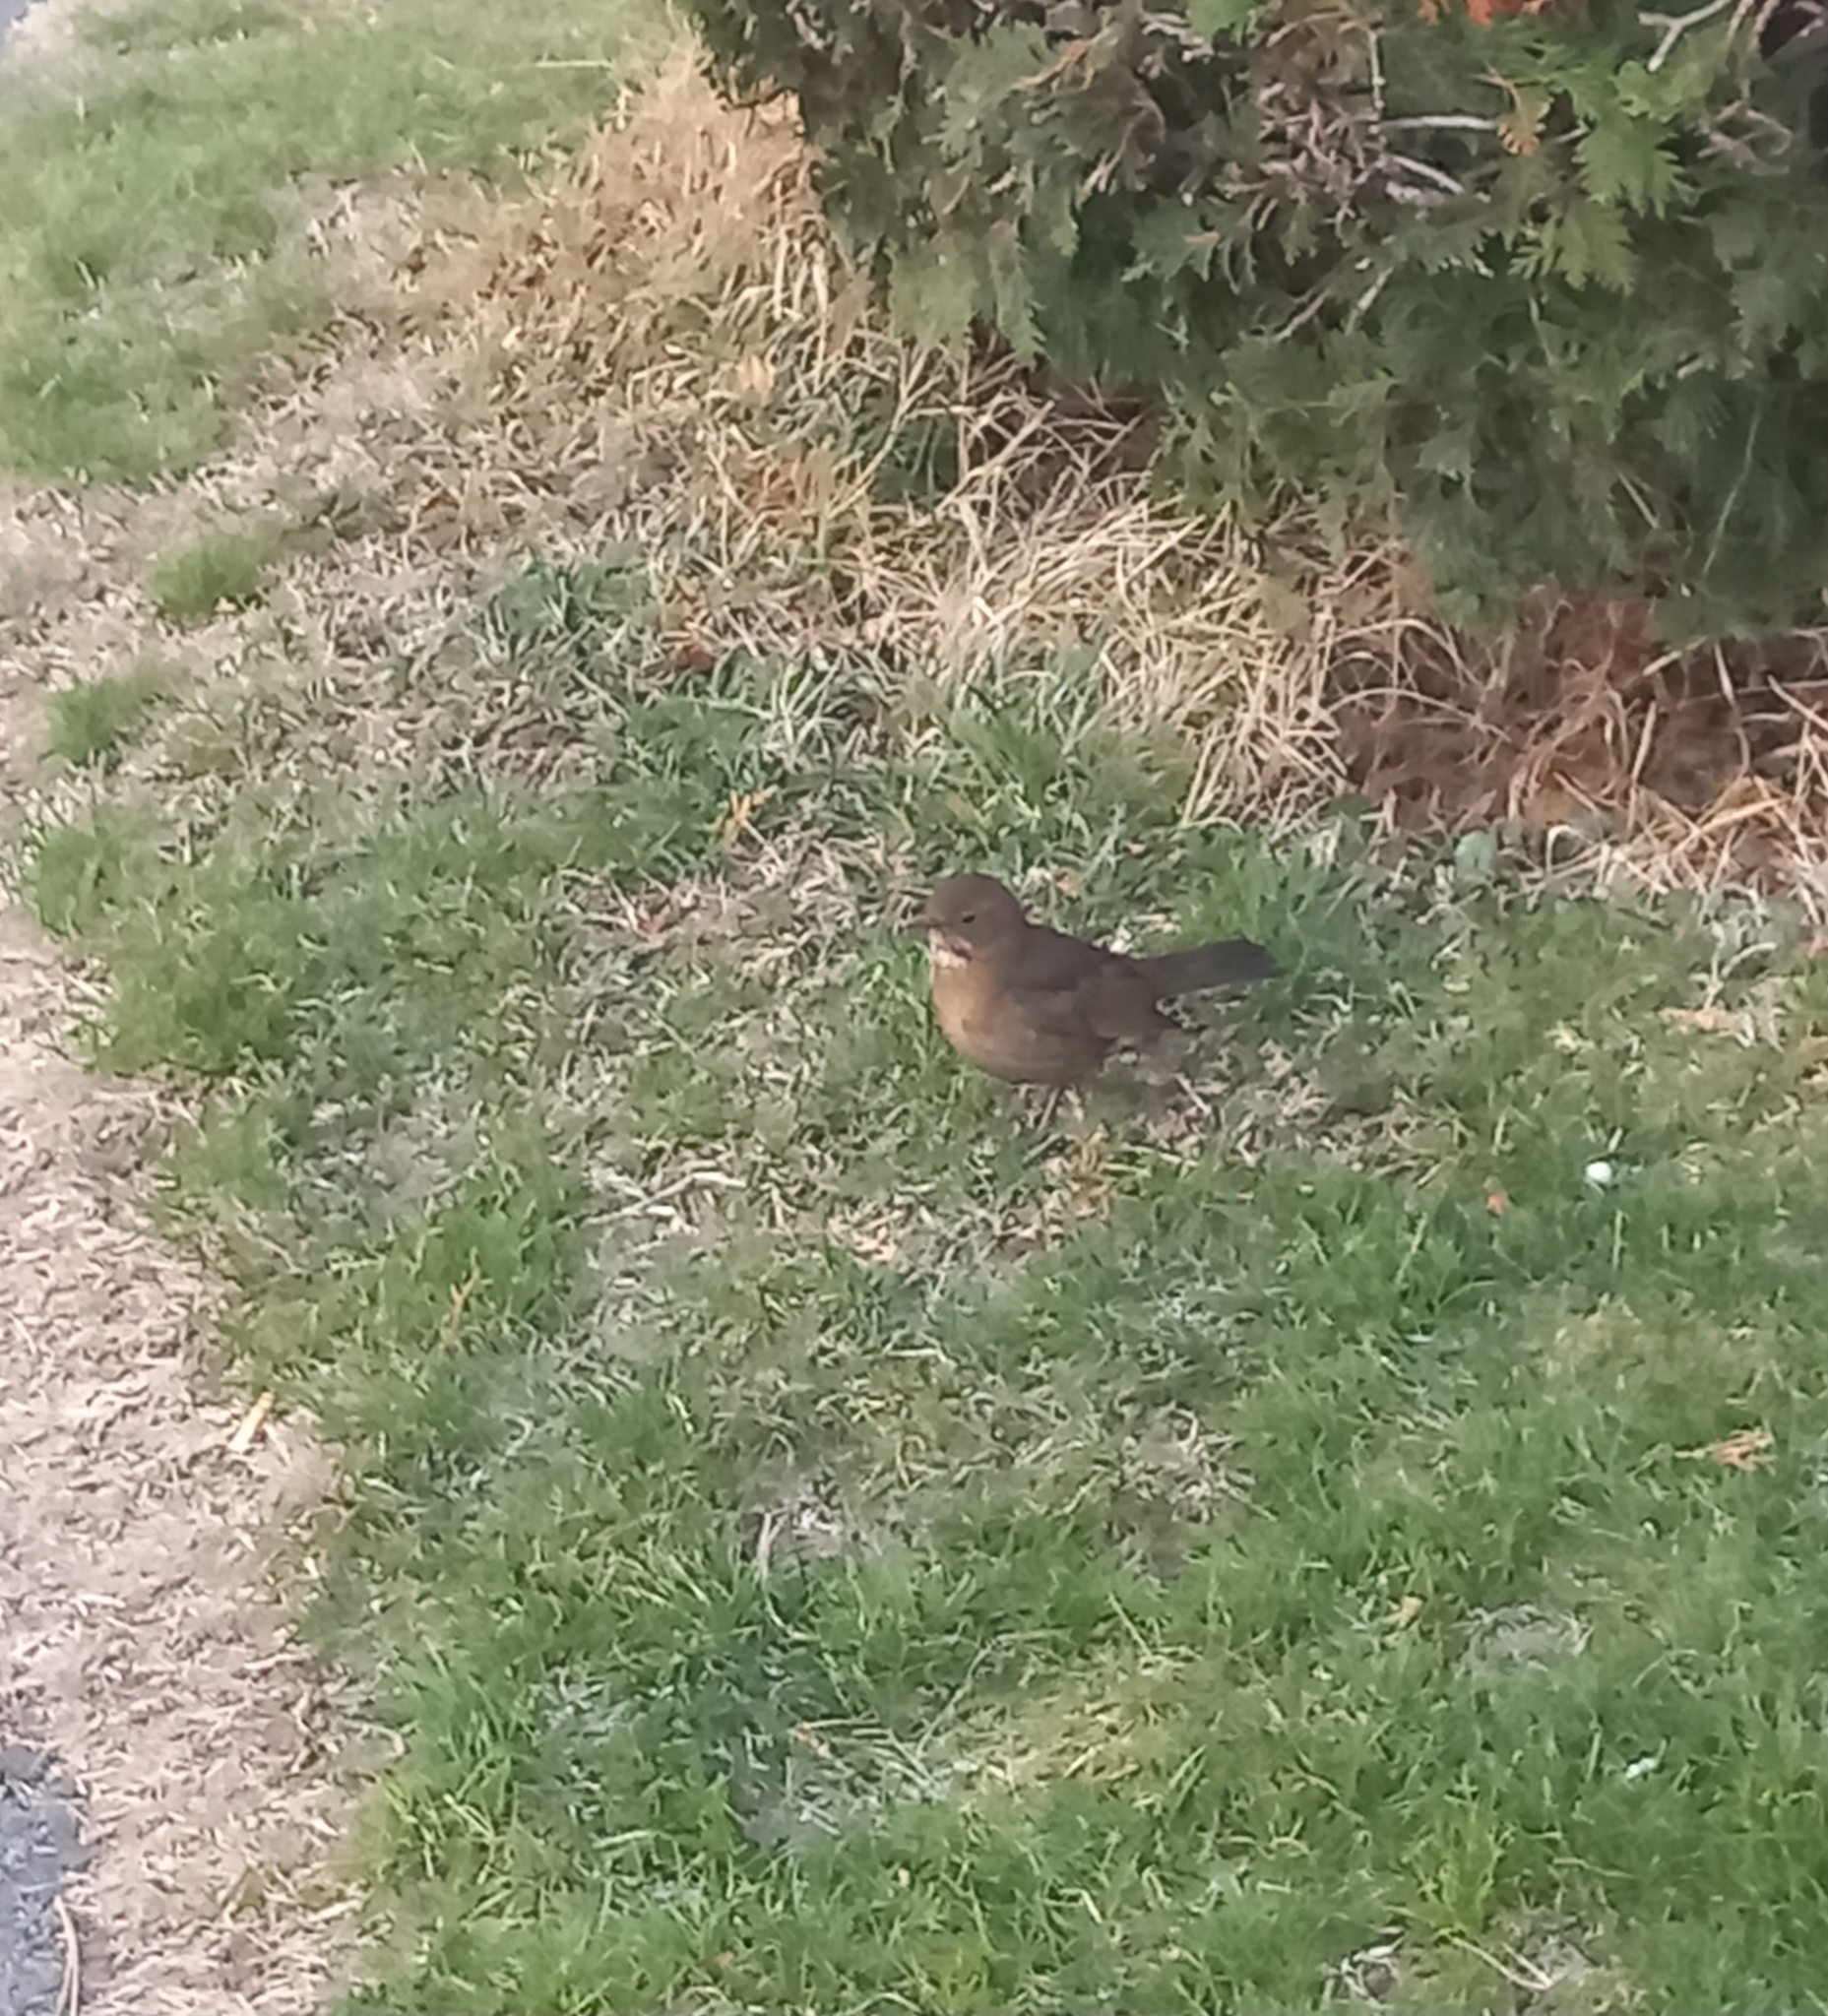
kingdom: Animalia
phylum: Chordata
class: Aves
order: Passeriformes
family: Turdidae
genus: Turdus
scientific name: Turdus merula
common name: Common blackbird
